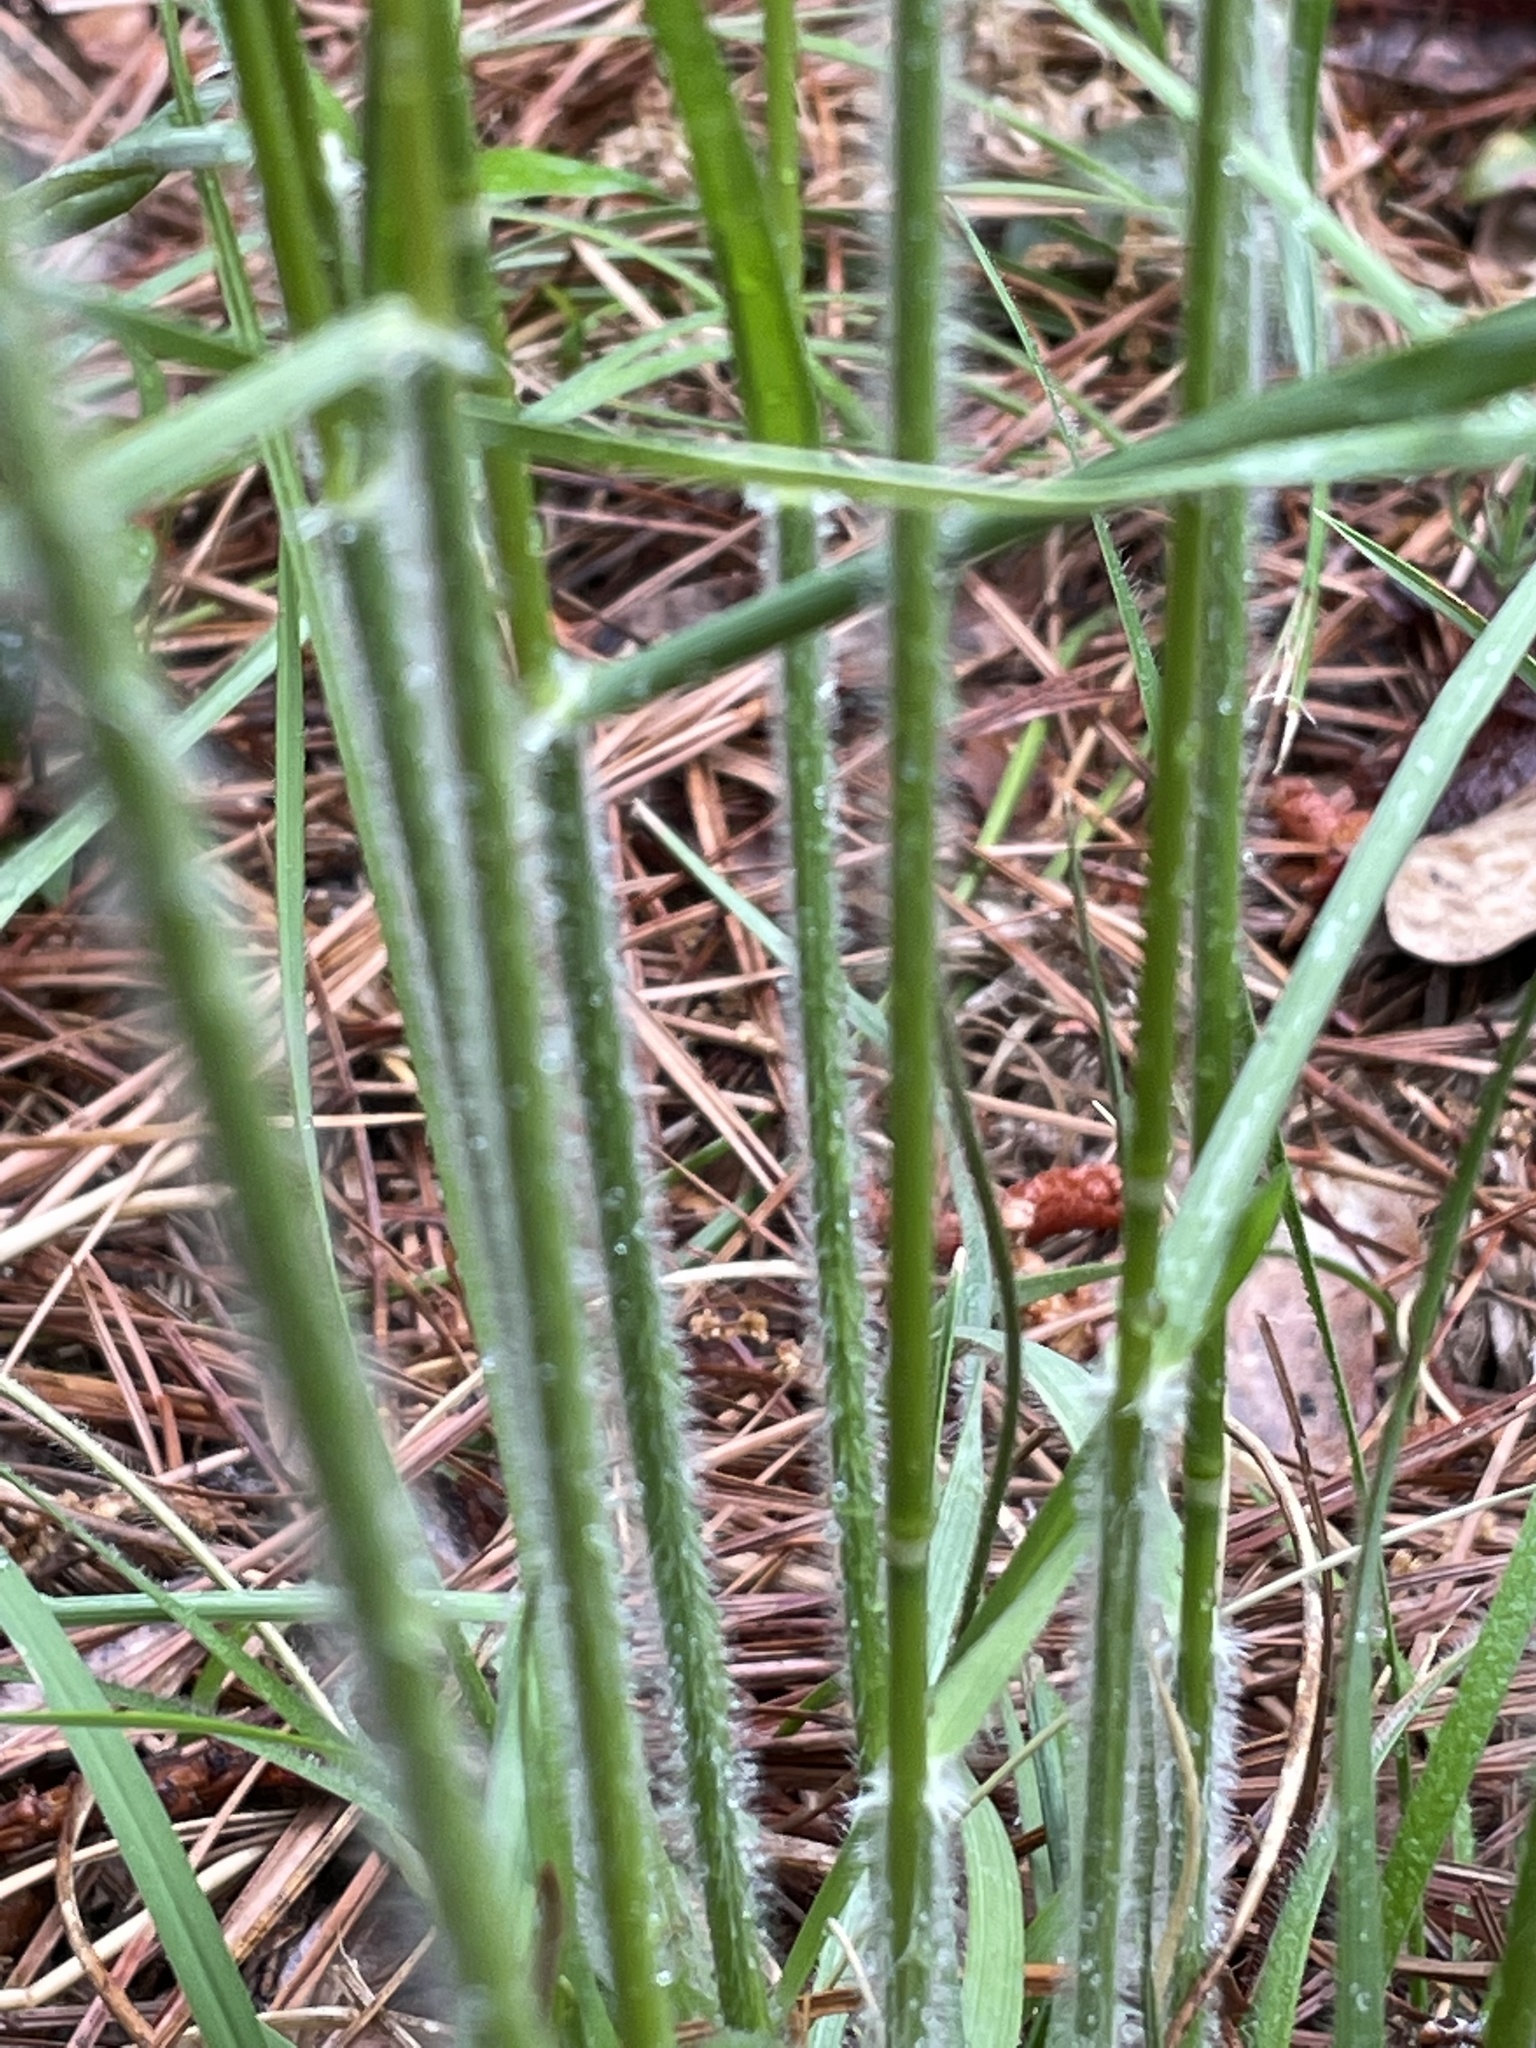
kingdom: Plantae
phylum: Tracheophyta
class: Liliopsida
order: Poales
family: Poaceae
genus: Danthonia
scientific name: Danthonia sericea
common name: Downy danthonia
